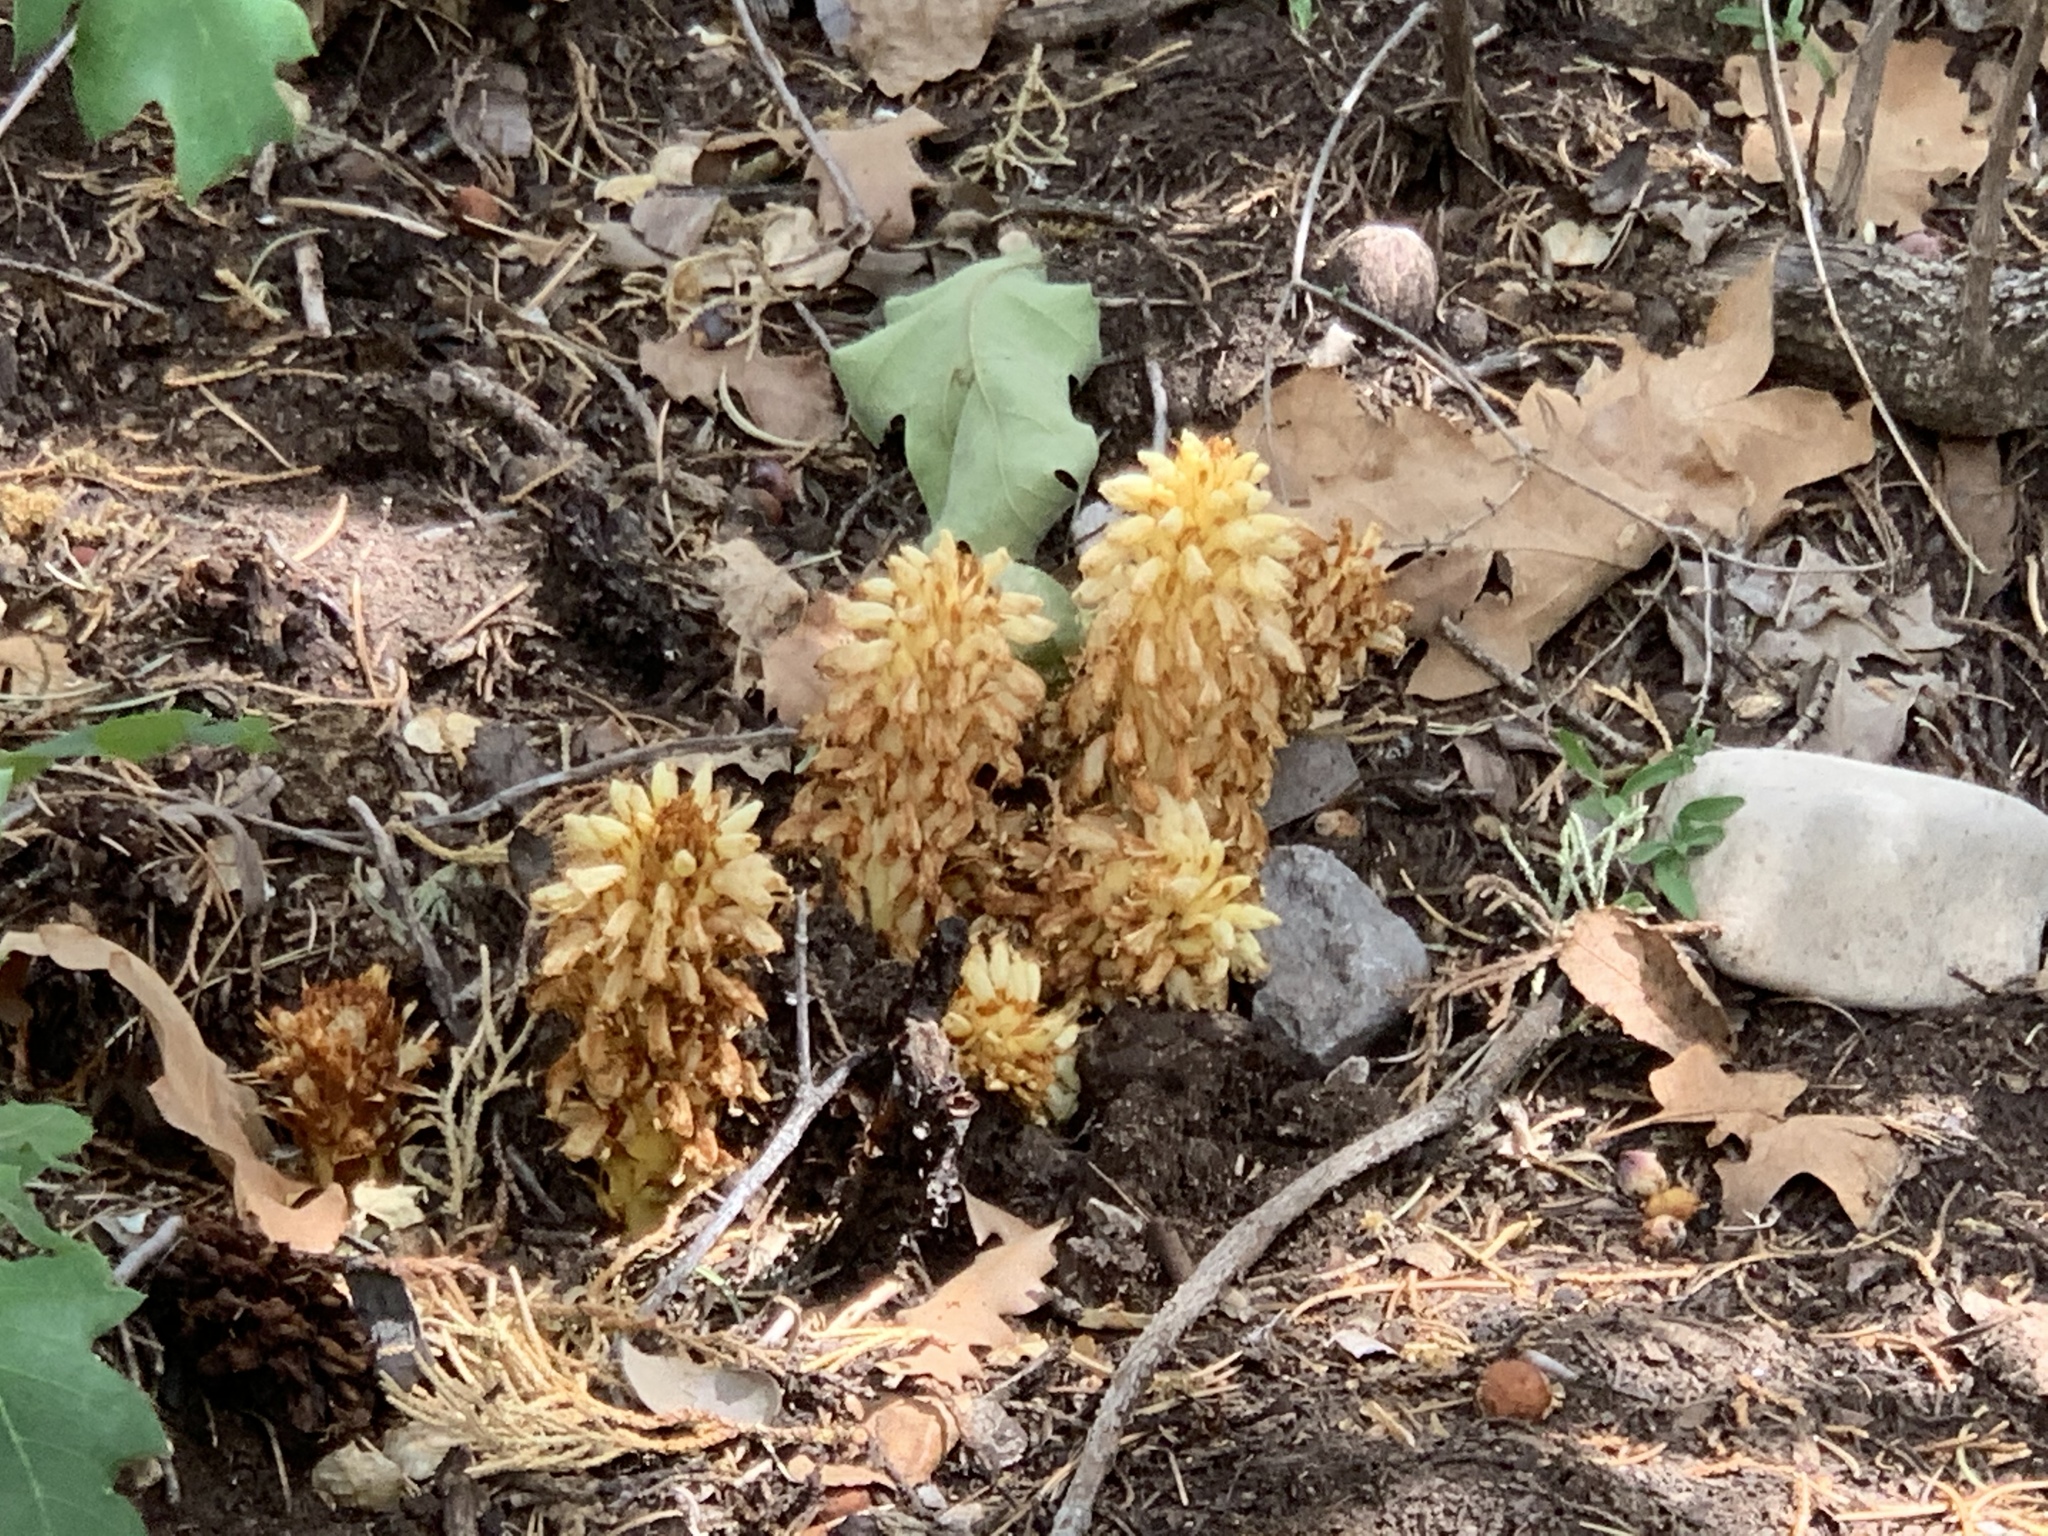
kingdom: Plantae
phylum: Tracheophyta
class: Magnoliopsida
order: Lamiales
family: Orobanchaceae
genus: Conopholis
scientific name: Conopholis alpina
